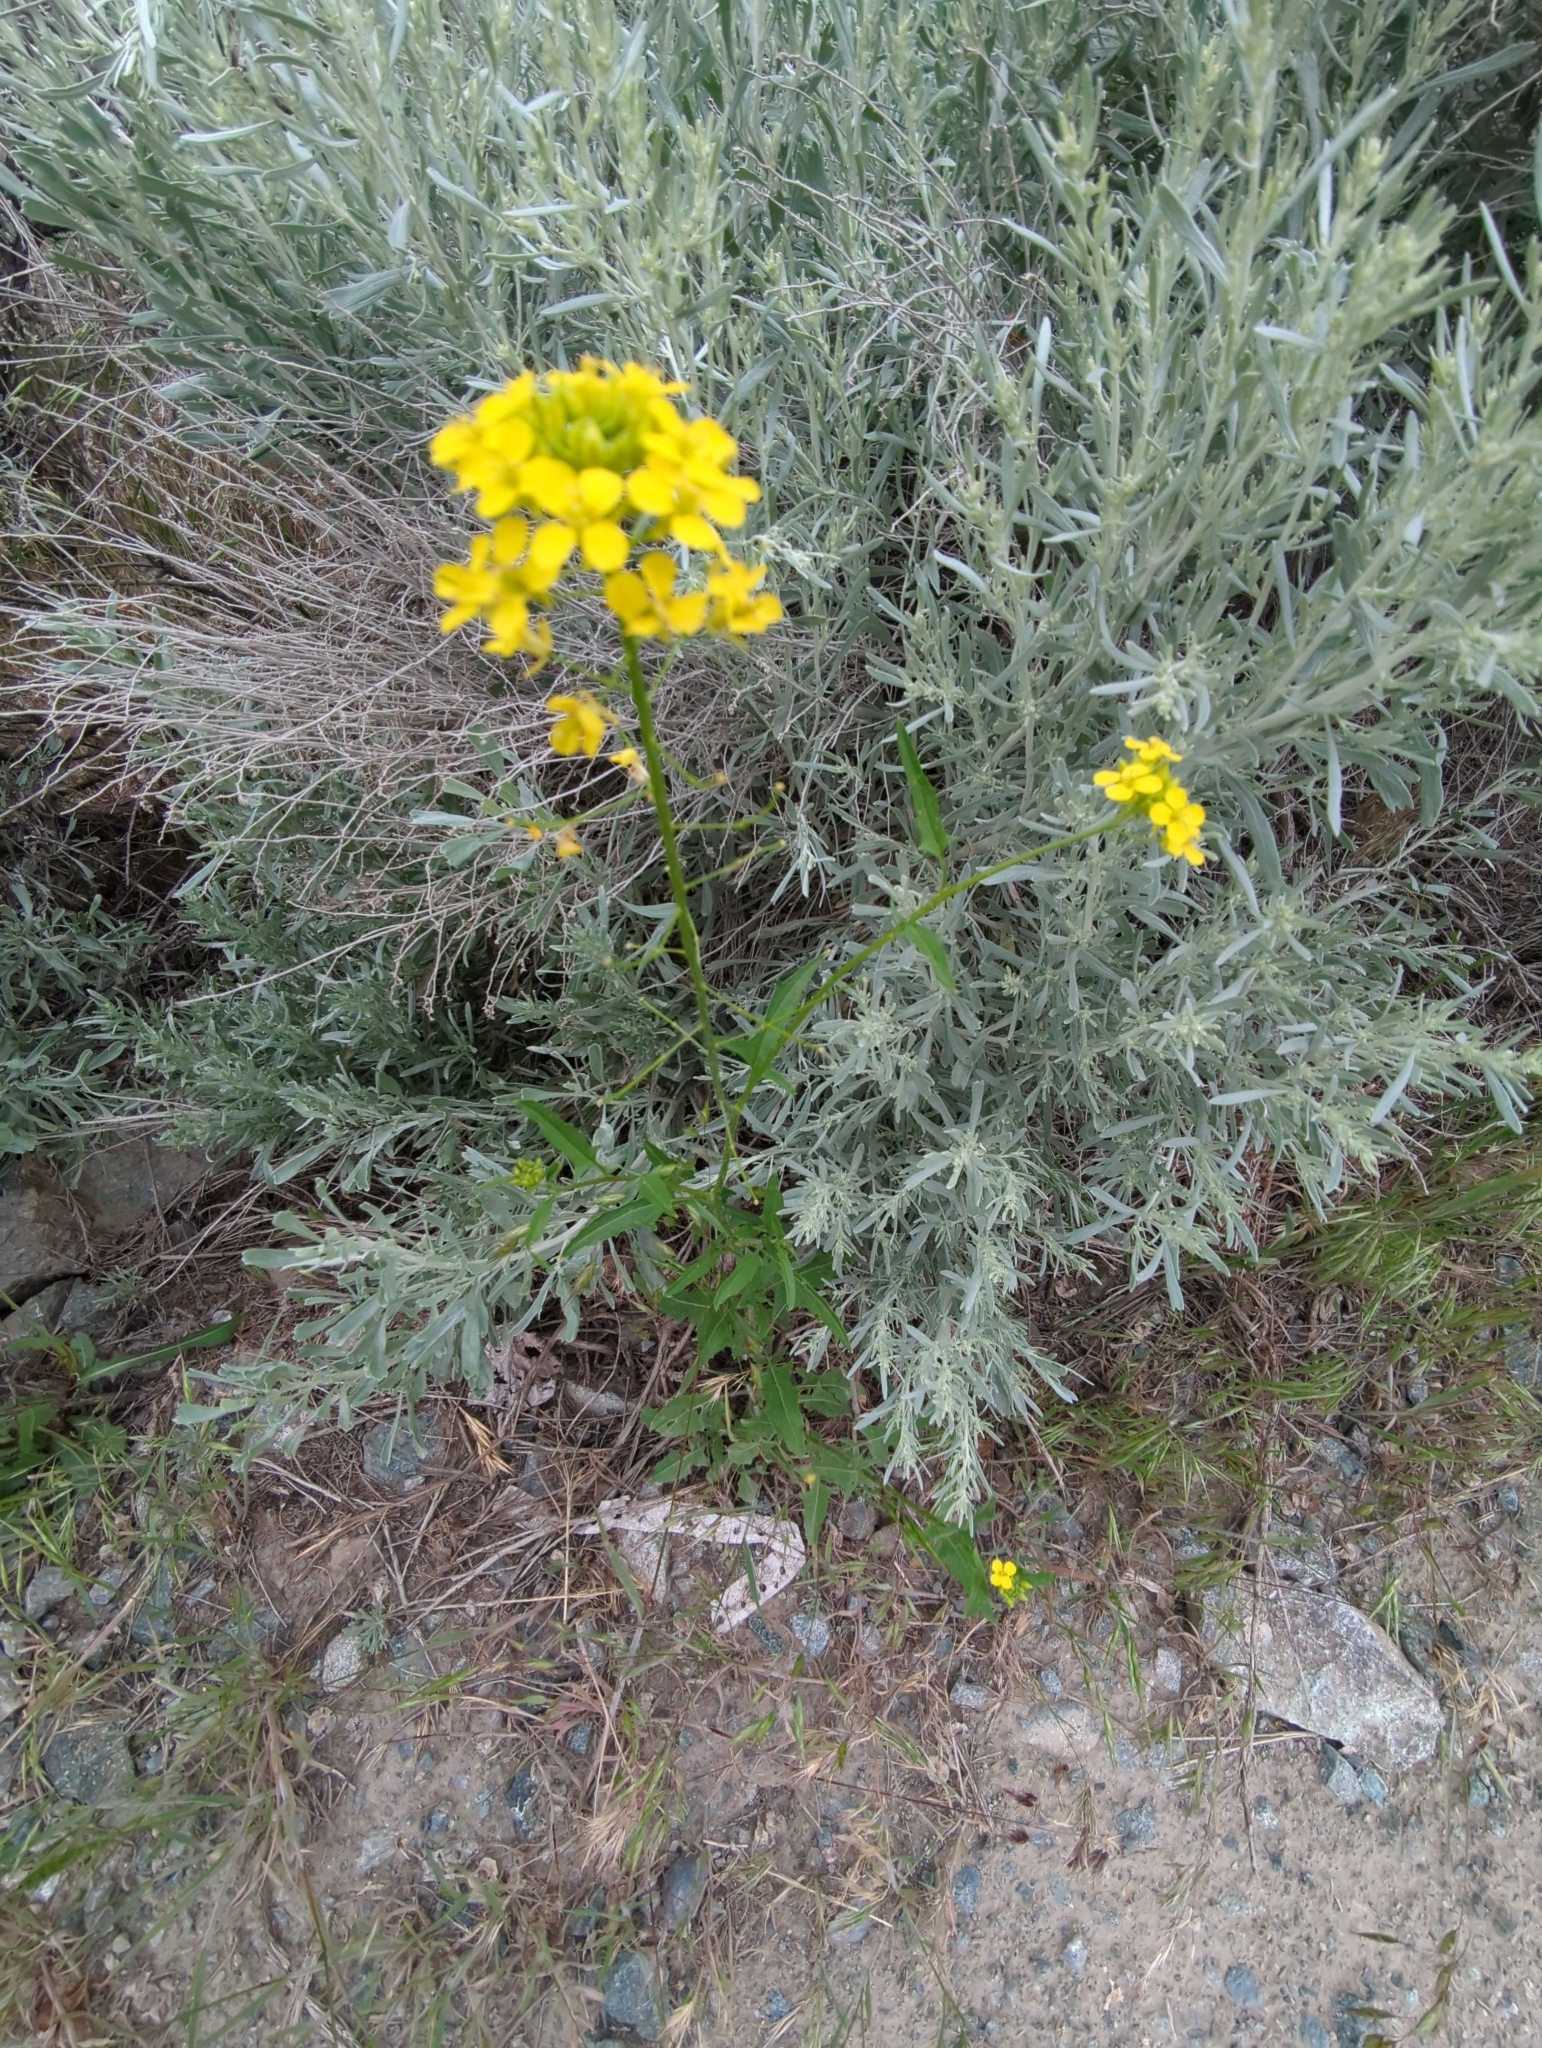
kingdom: Plantae
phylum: Tracheophyta
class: Magnoliopsida
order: Brassicales
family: Brassicaceae
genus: Sisymbrium
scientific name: Sisymbrium loeselii
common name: False london-rocket
